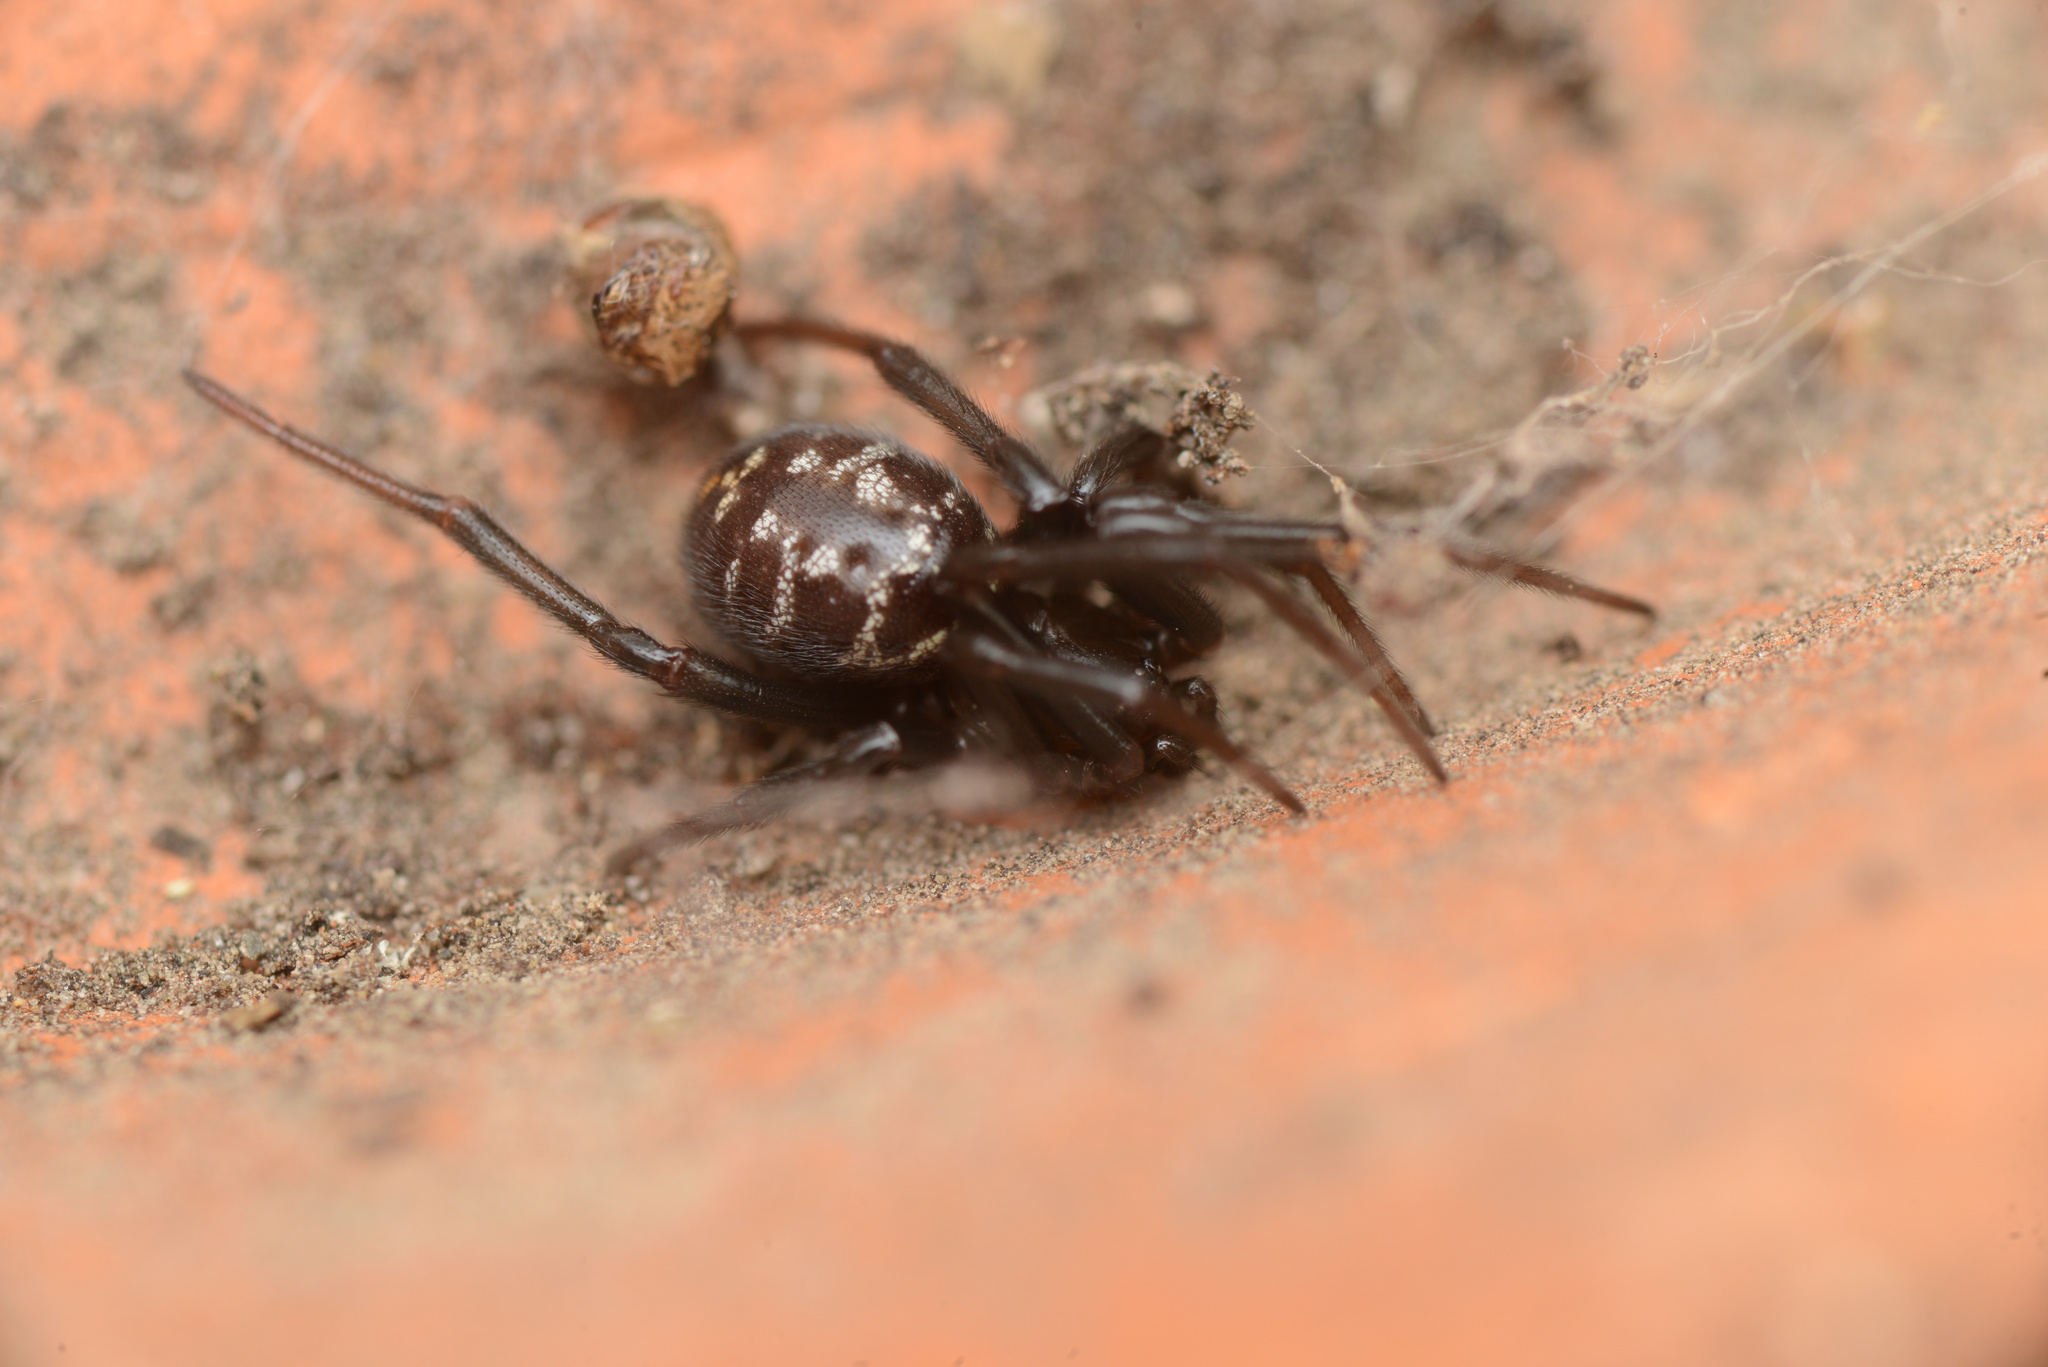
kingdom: Animalia
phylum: Arthropoda
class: Arachnida
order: Araneae
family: Theridiidae
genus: Steatoda
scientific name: Steatoda capensis
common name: Cobweb weaver
